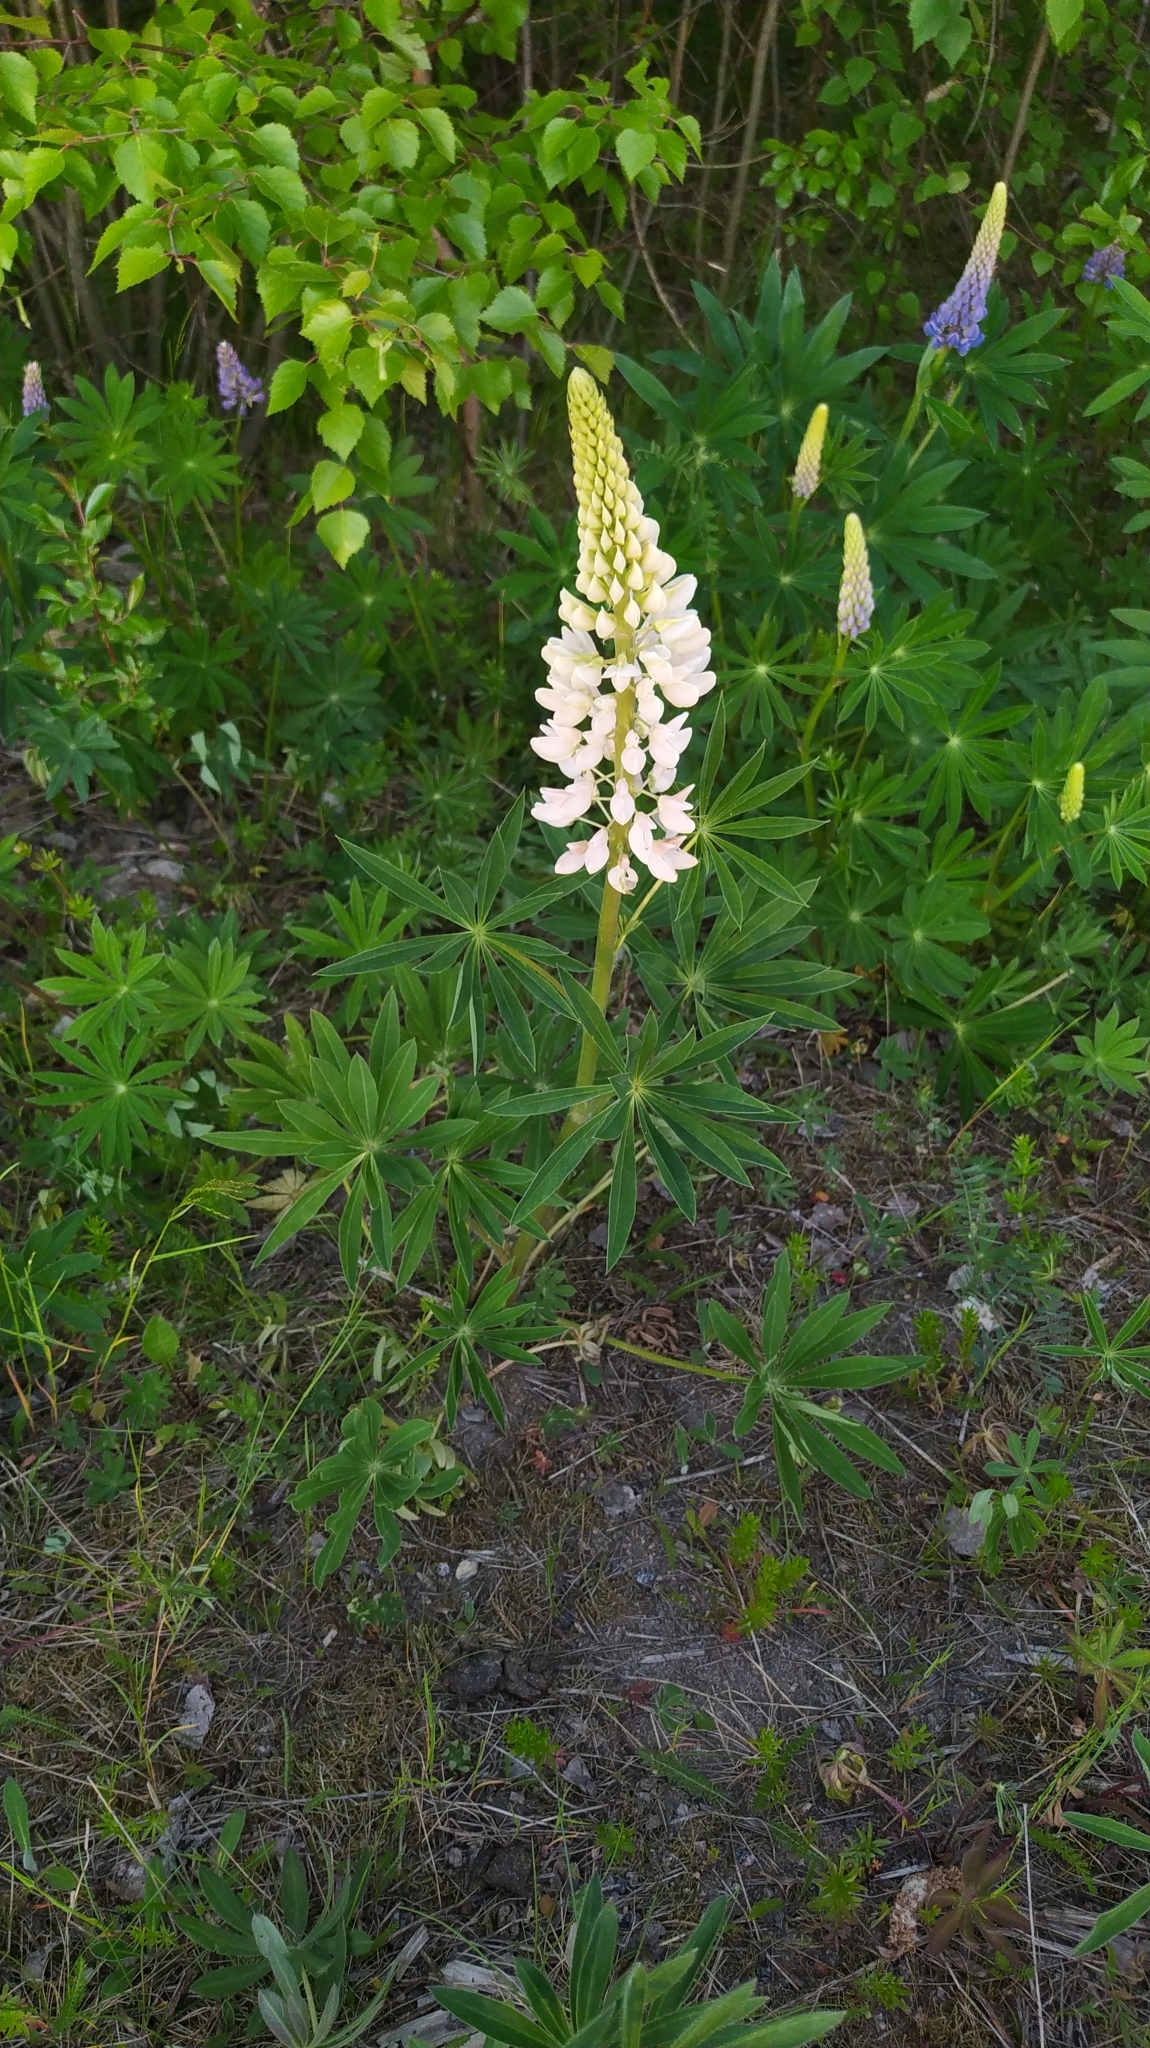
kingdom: Plantae
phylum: Tracheophyta
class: Magnoliopsida
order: Fabales
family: Fabaceae
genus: Lupinus
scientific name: Lupinus polyphyllus
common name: Garden lupin
